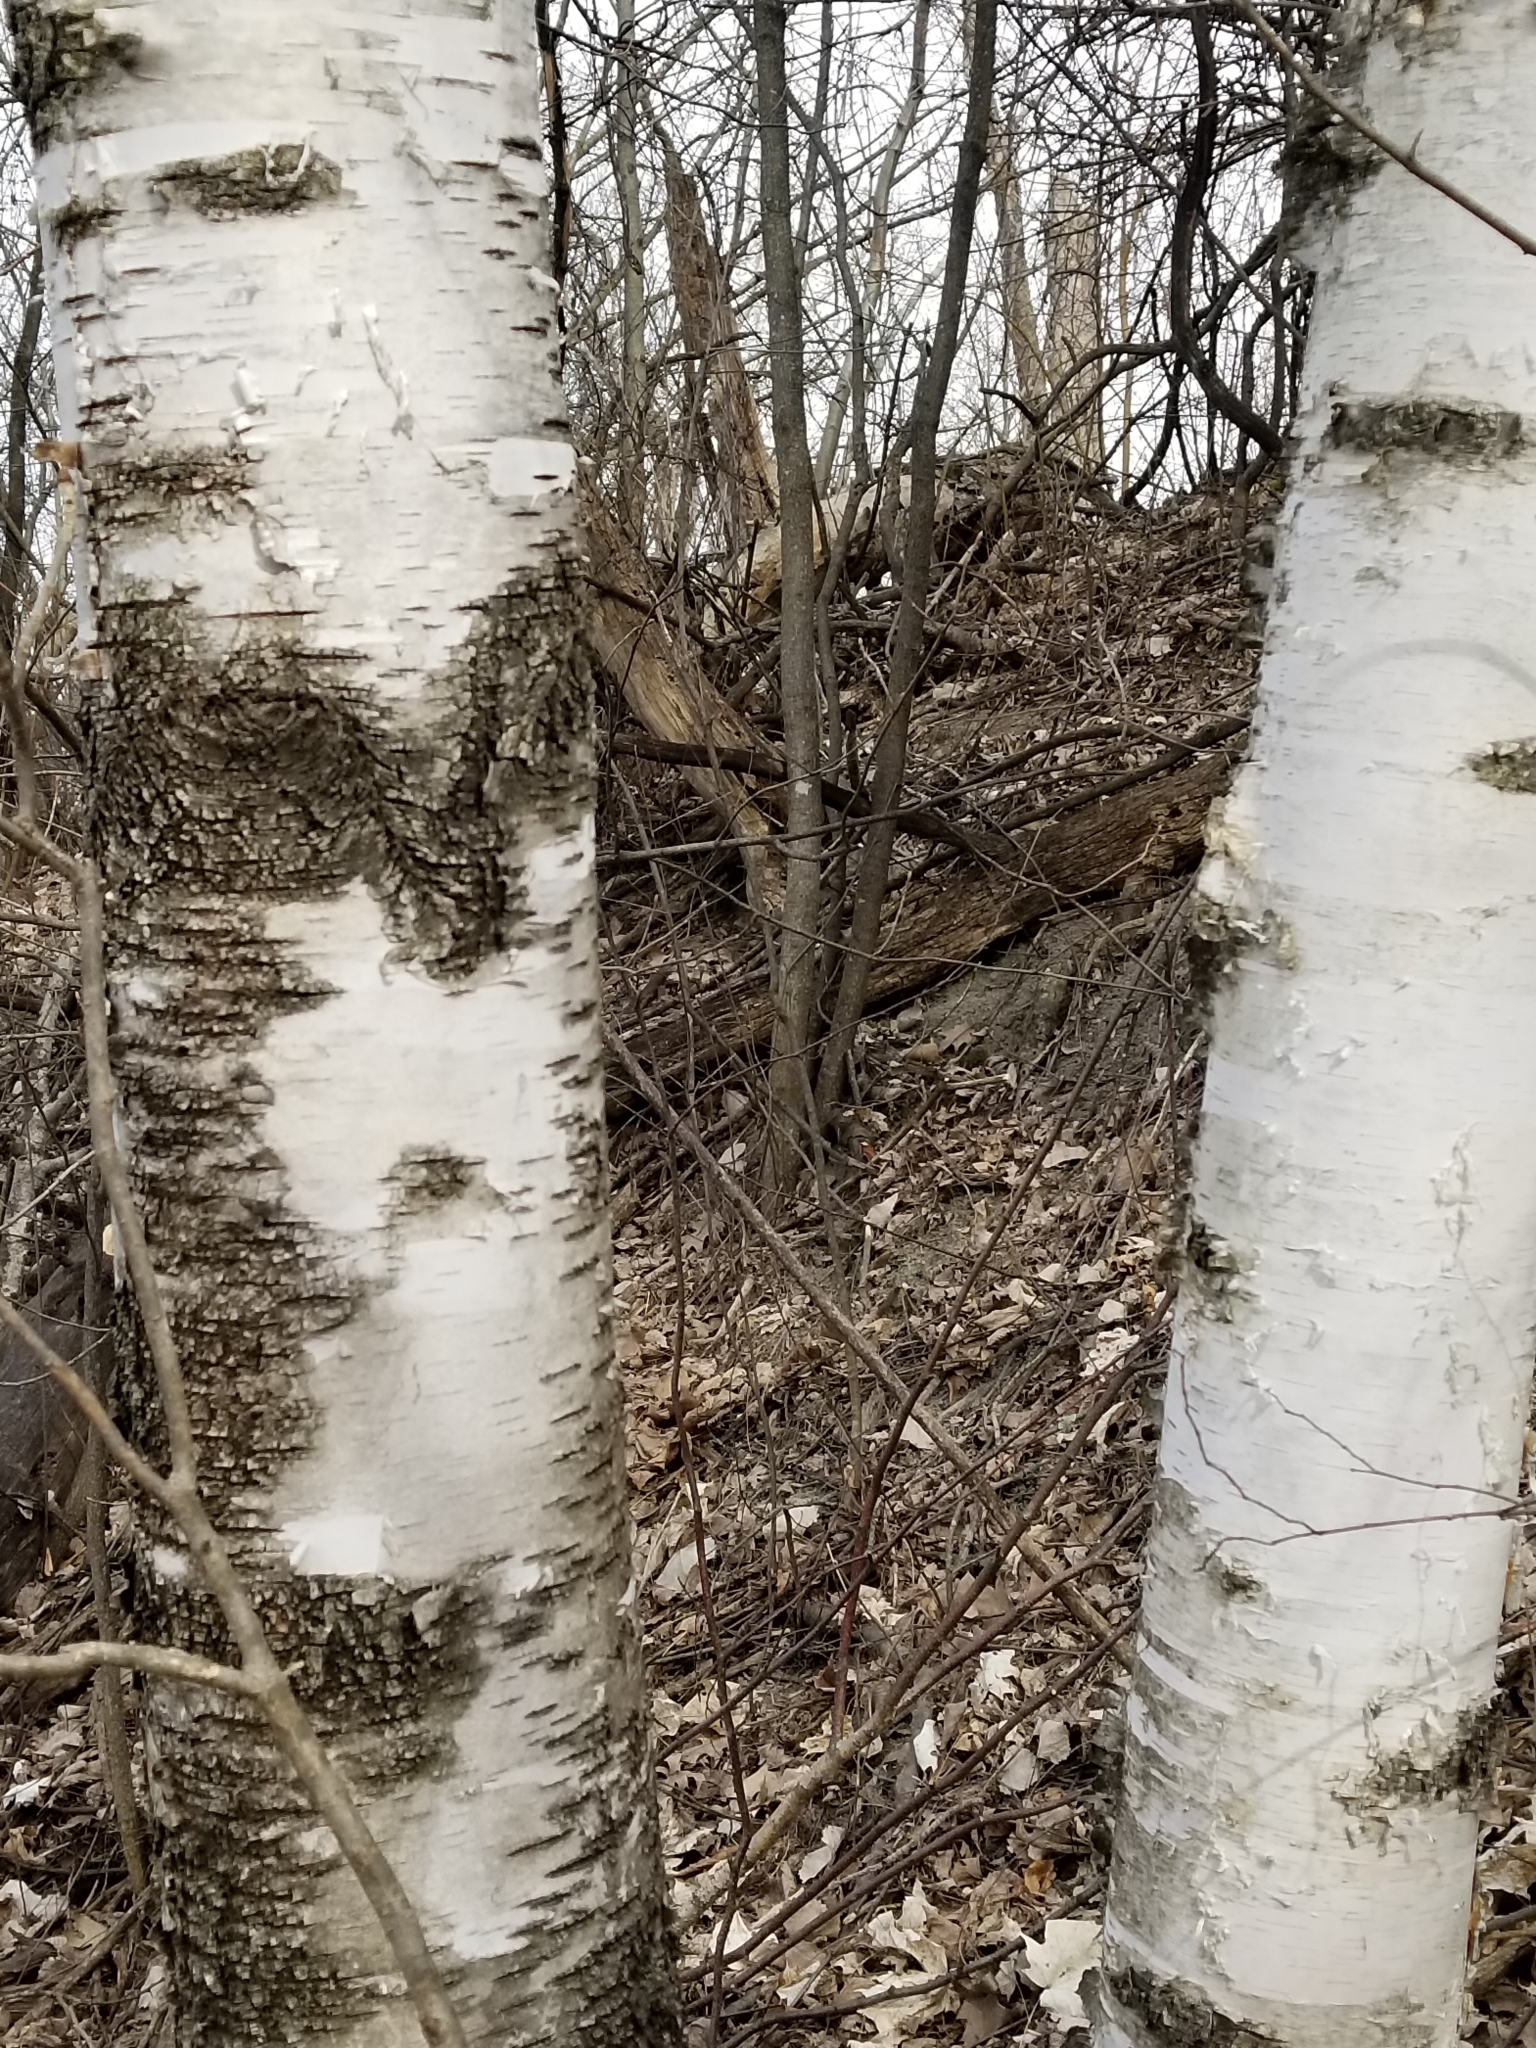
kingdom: Plantae
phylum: Tracheophyta
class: Magnoliopsida
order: Fagales
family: Betulaceae
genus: Betula
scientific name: Betula papyrifera
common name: Paper birch
